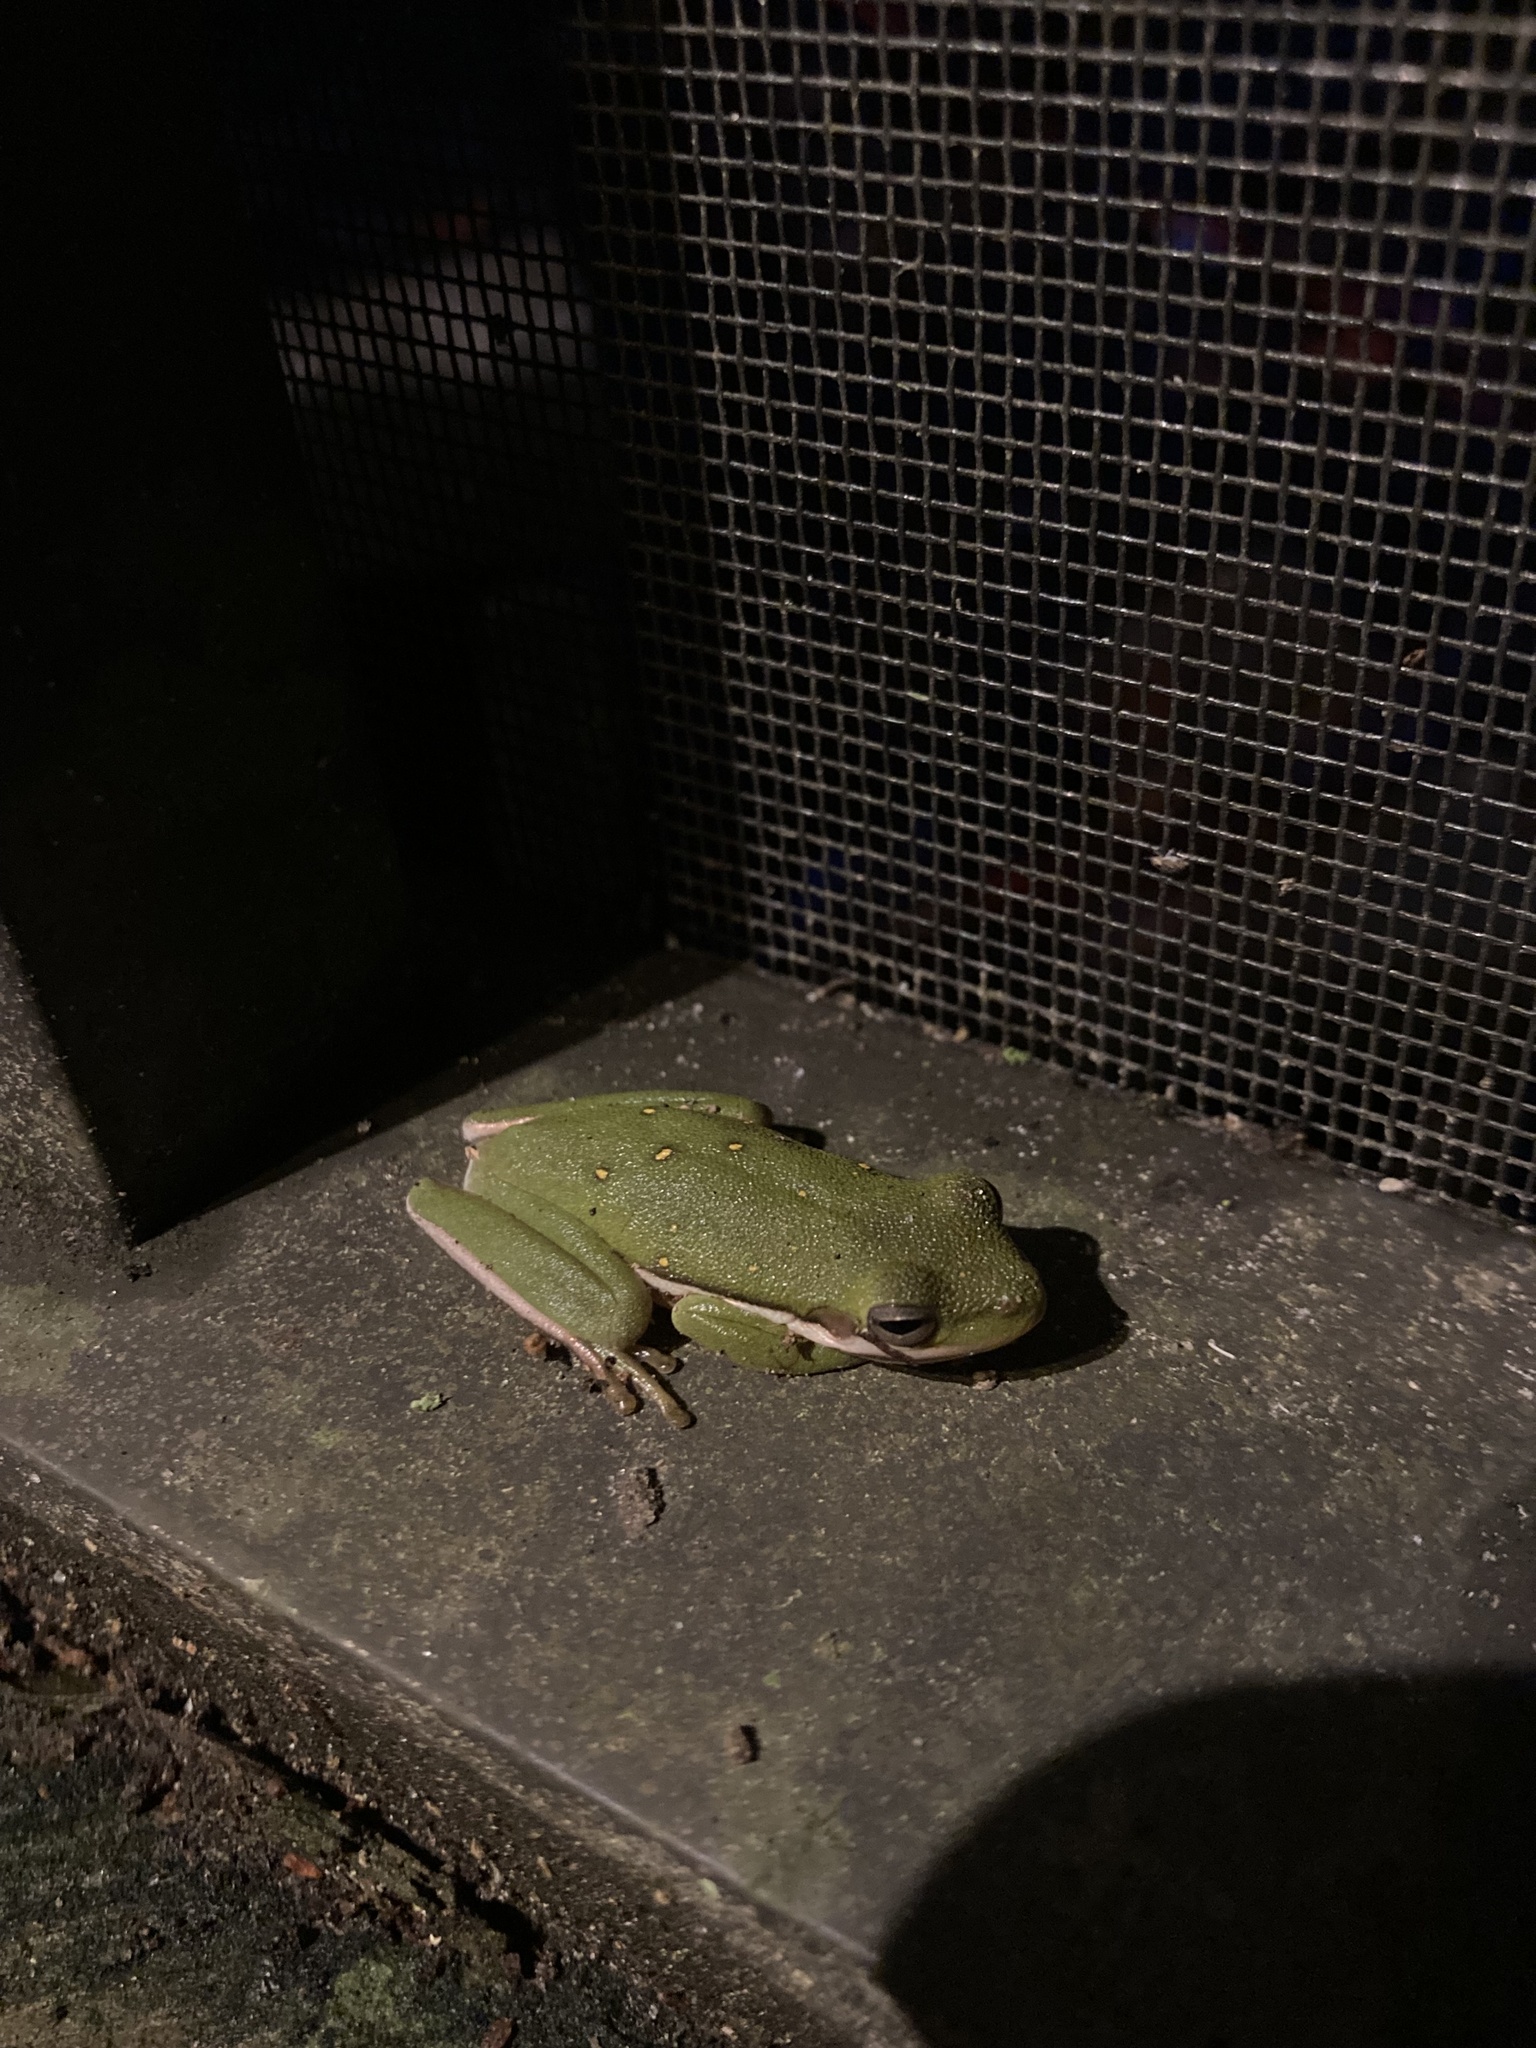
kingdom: Animalia
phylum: Chordata
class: Amphibia
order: Anura
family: Hylidae
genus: Dryophytes
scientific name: Dryophytes cinereus
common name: Green treefrog
